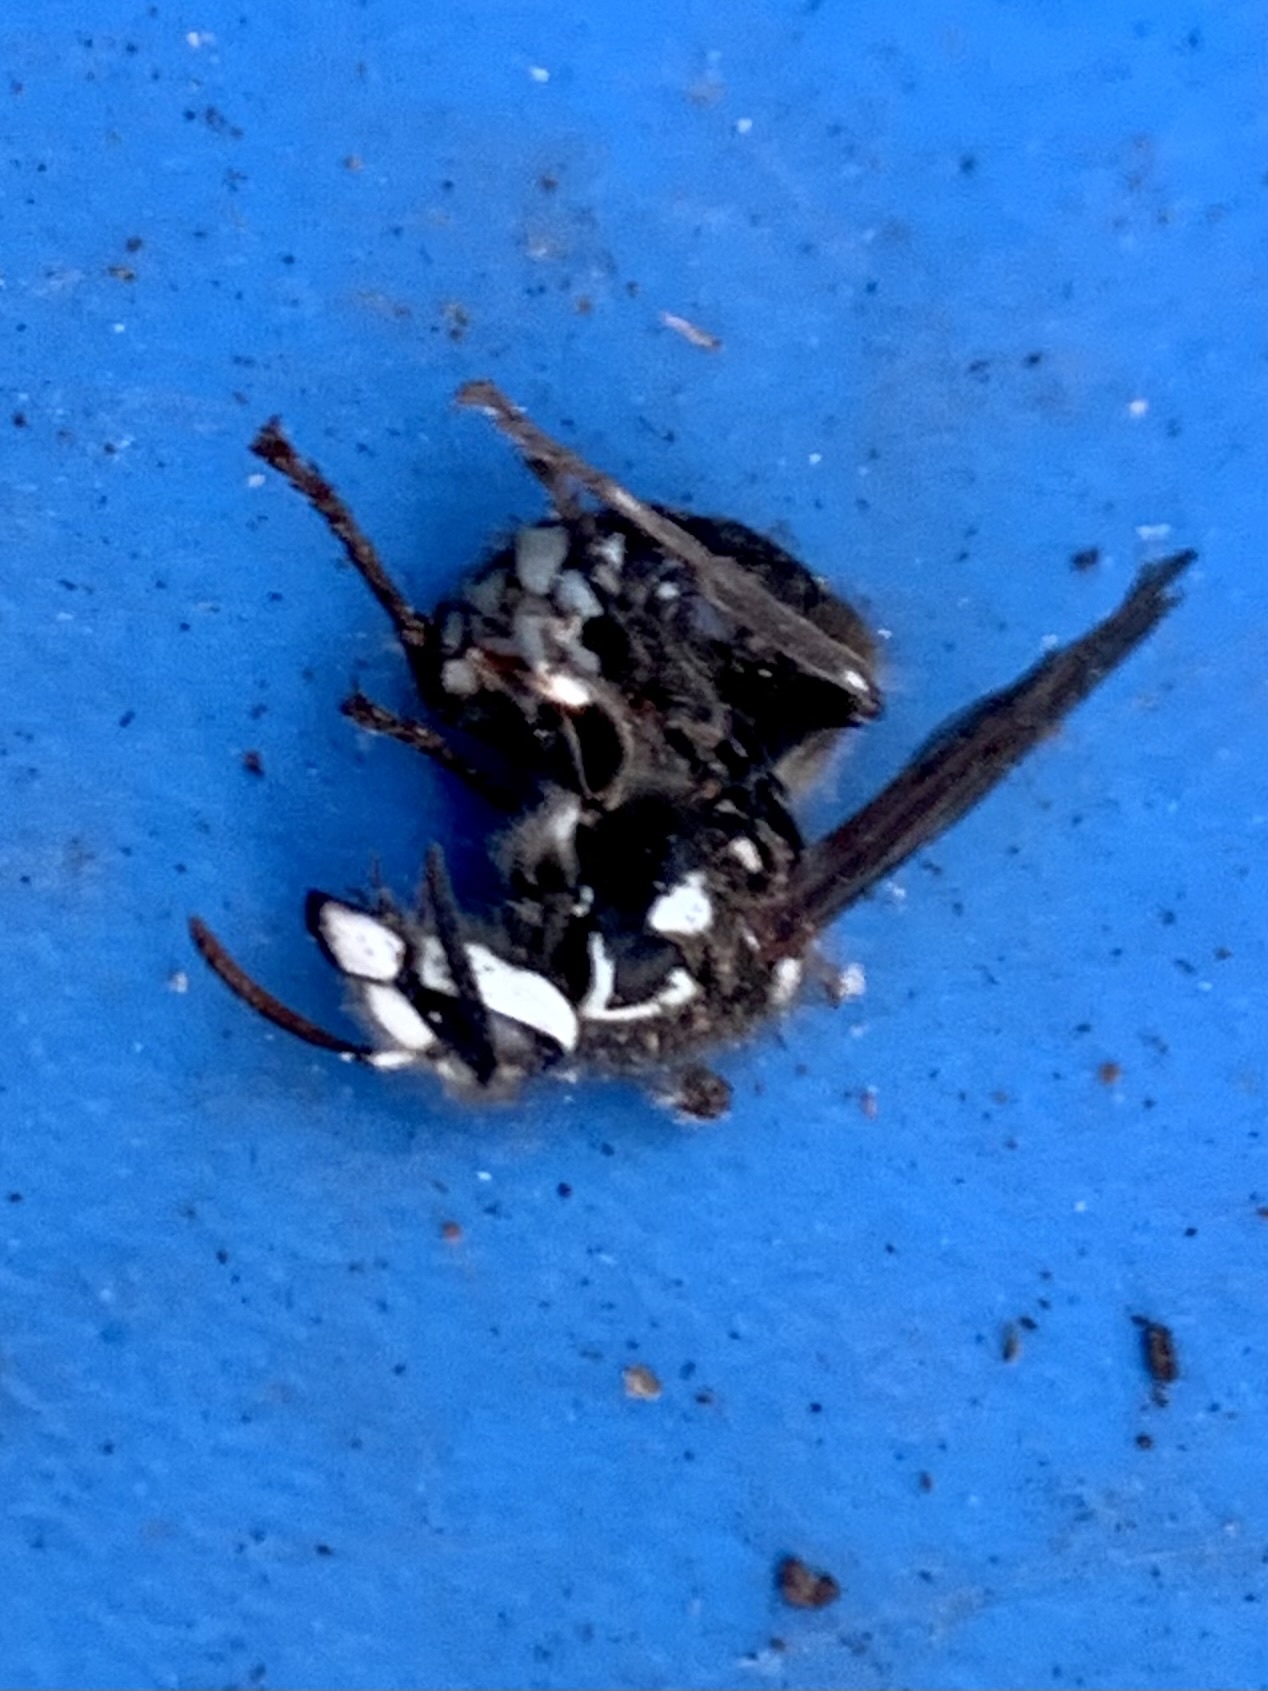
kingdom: Animalia
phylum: Arthropoda
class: Insecta
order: Hymenoptera
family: Vespidae
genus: Dolichovespula
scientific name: Dolichovespula maculata
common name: Bald-faced hornet
